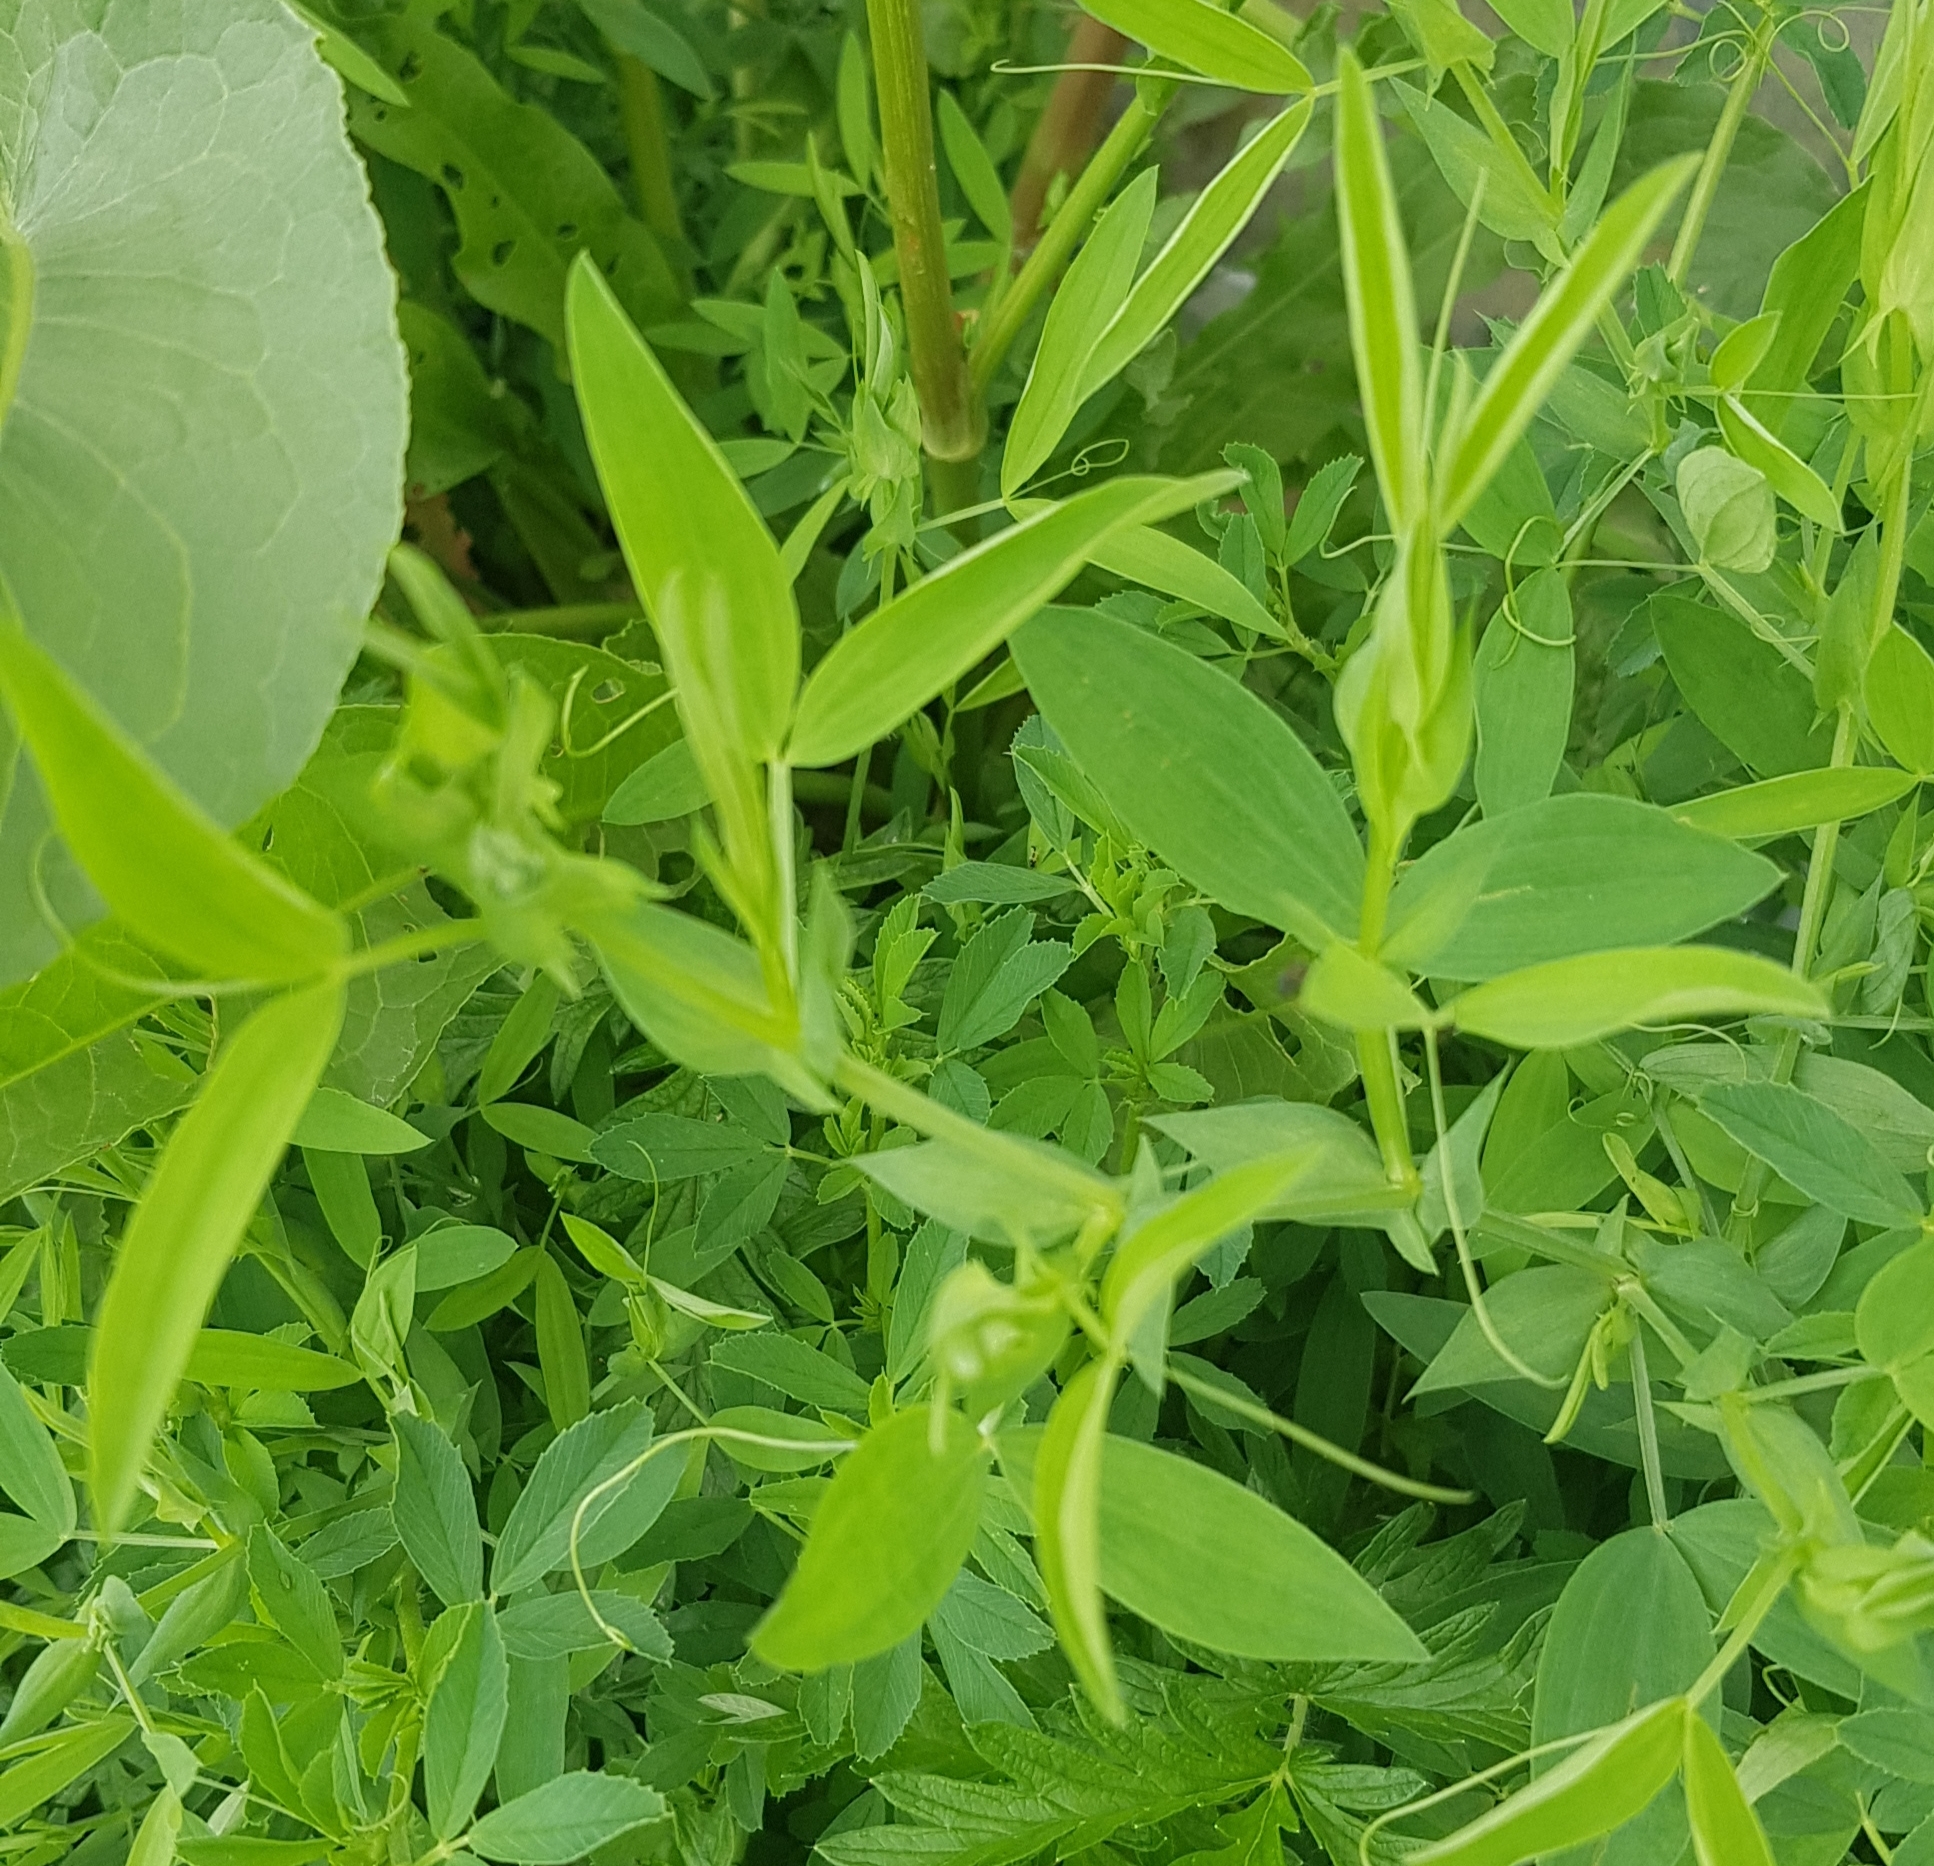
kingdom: Plantae
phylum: Tracheophyta
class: Magnoliopsida
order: Fabales
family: Fabaceae
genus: Lathyrus
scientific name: Lathyrus pratensis
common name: Meadow vetchling
